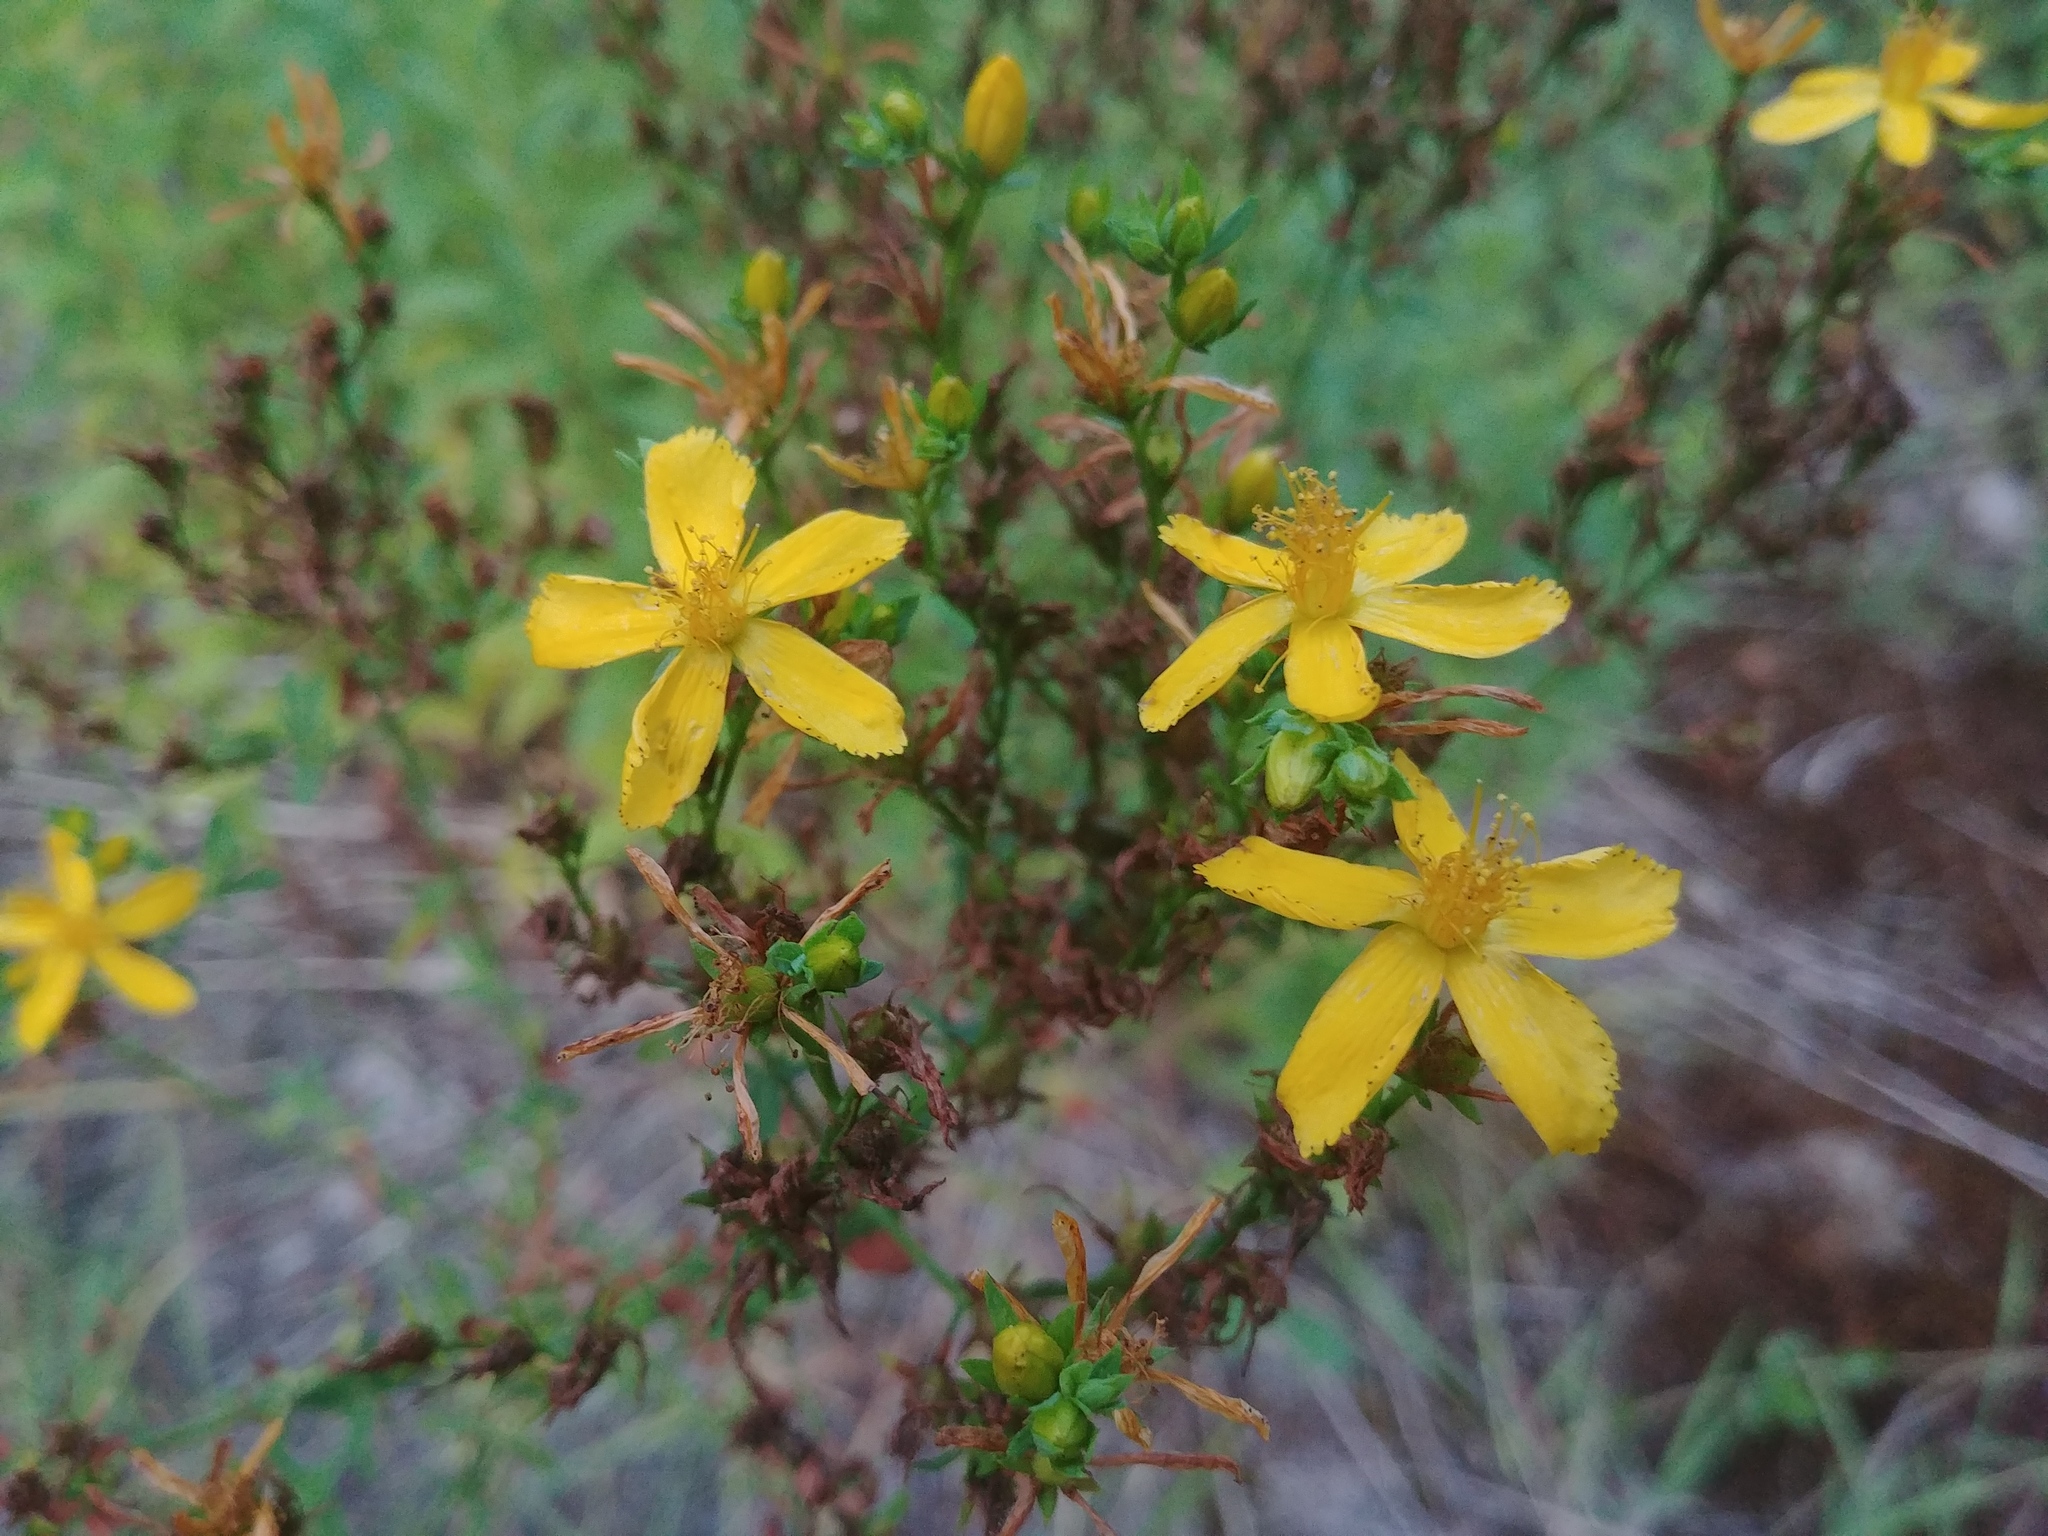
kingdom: Plantae
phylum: Tracheophyta
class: Magnoliopsida
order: Malpighiales
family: Hypericaceae
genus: Hypericum
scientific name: Hypericum perforatum
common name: Common st. johnswort
